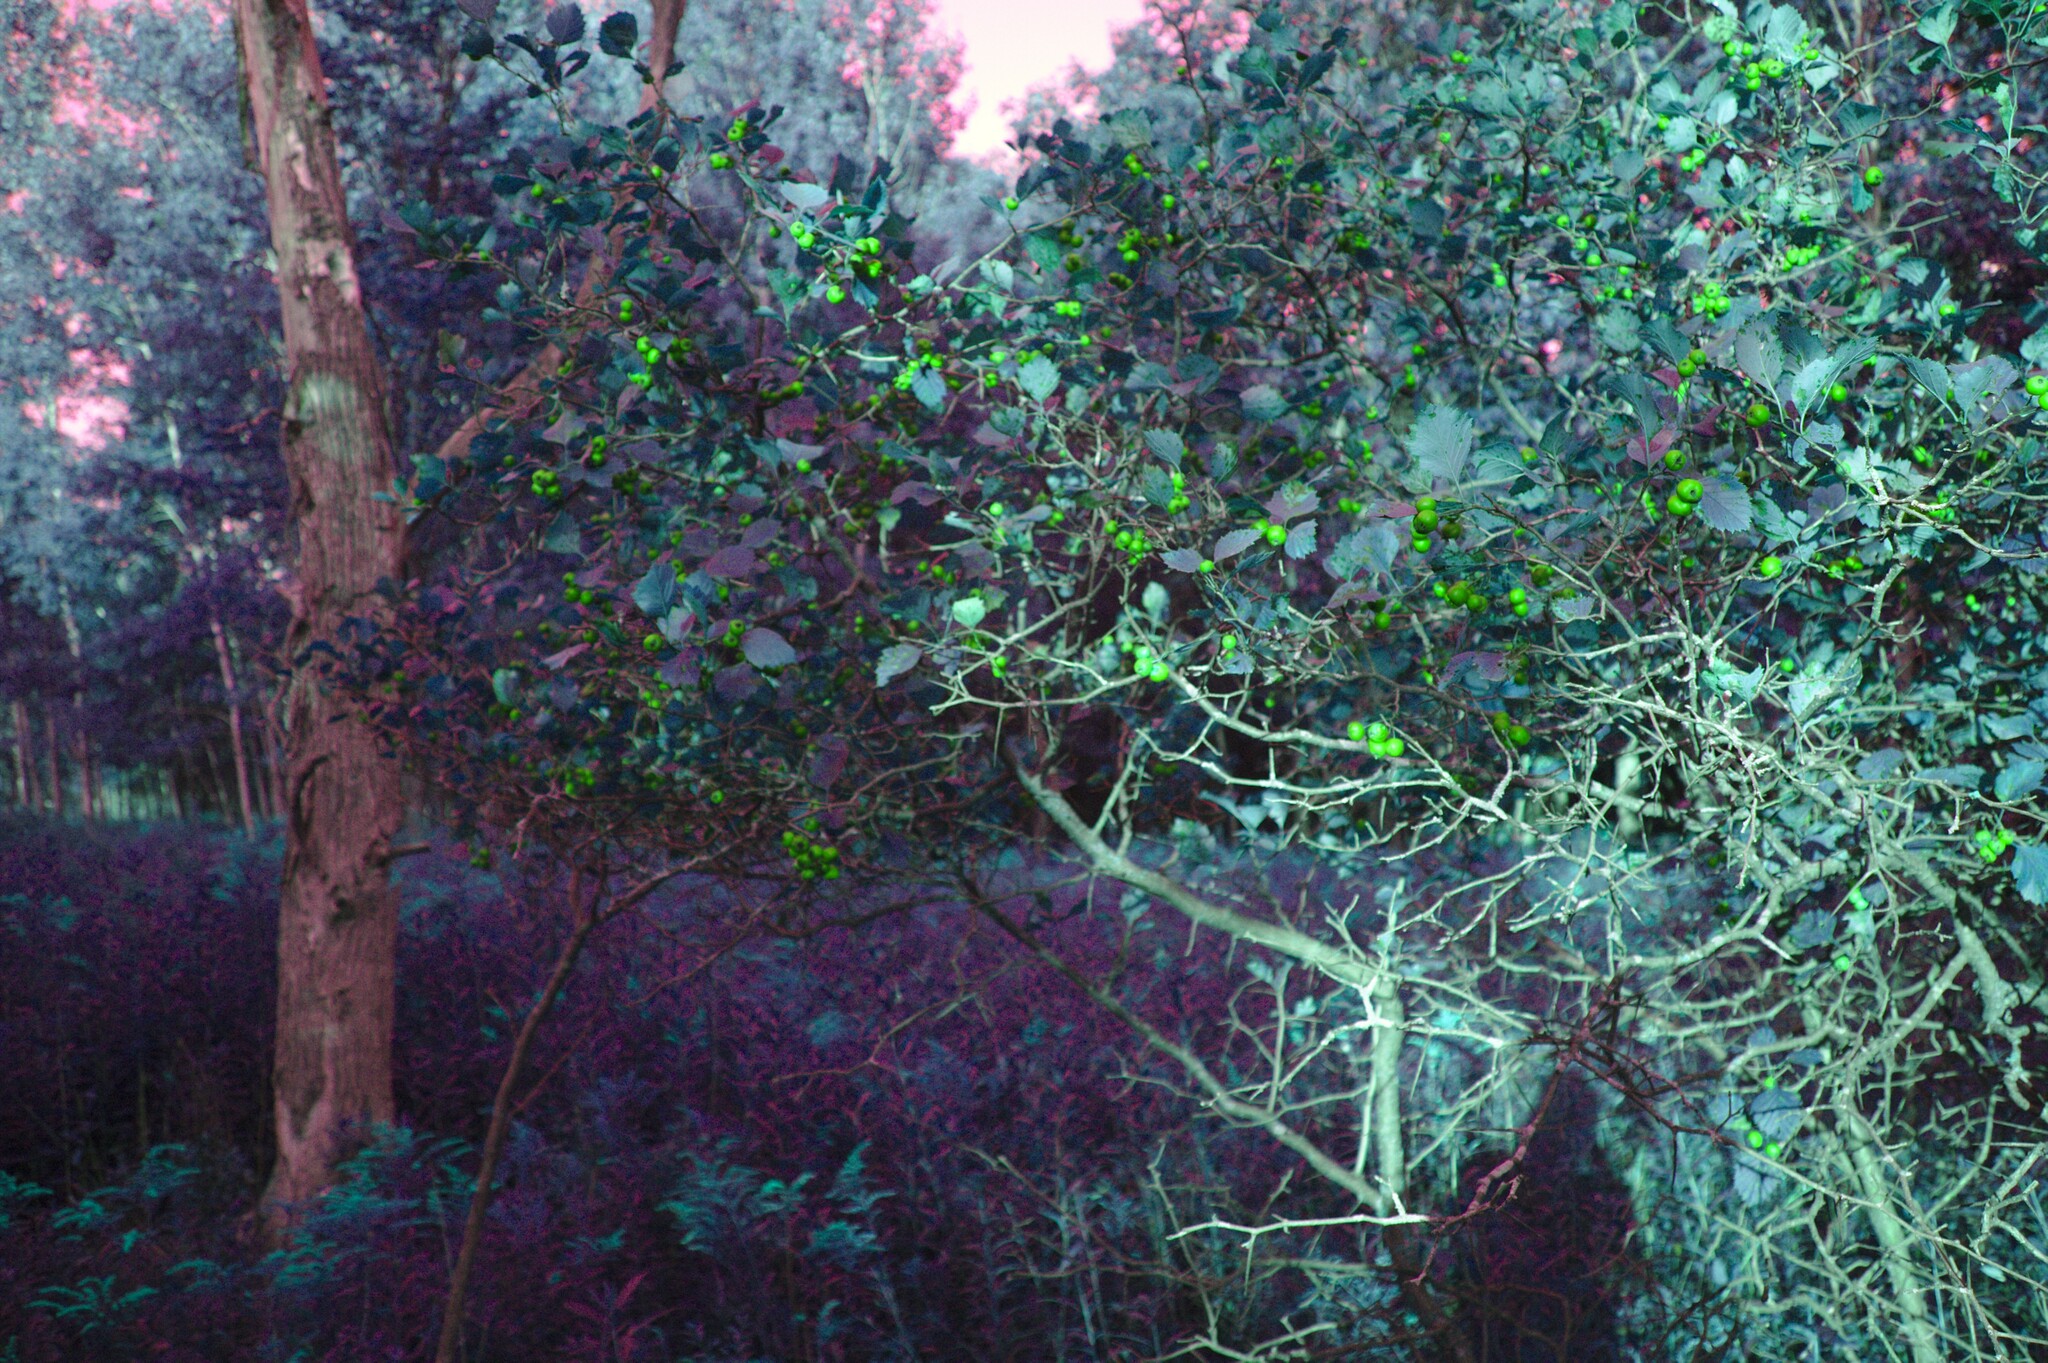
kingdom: Plantae
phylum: Tracheophyta
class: Magnoliopsida
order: Rosales
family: Rosaceae
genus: Crataegus
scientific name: Crataegus chrysocarpa
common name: Fire-berry hawthorn
